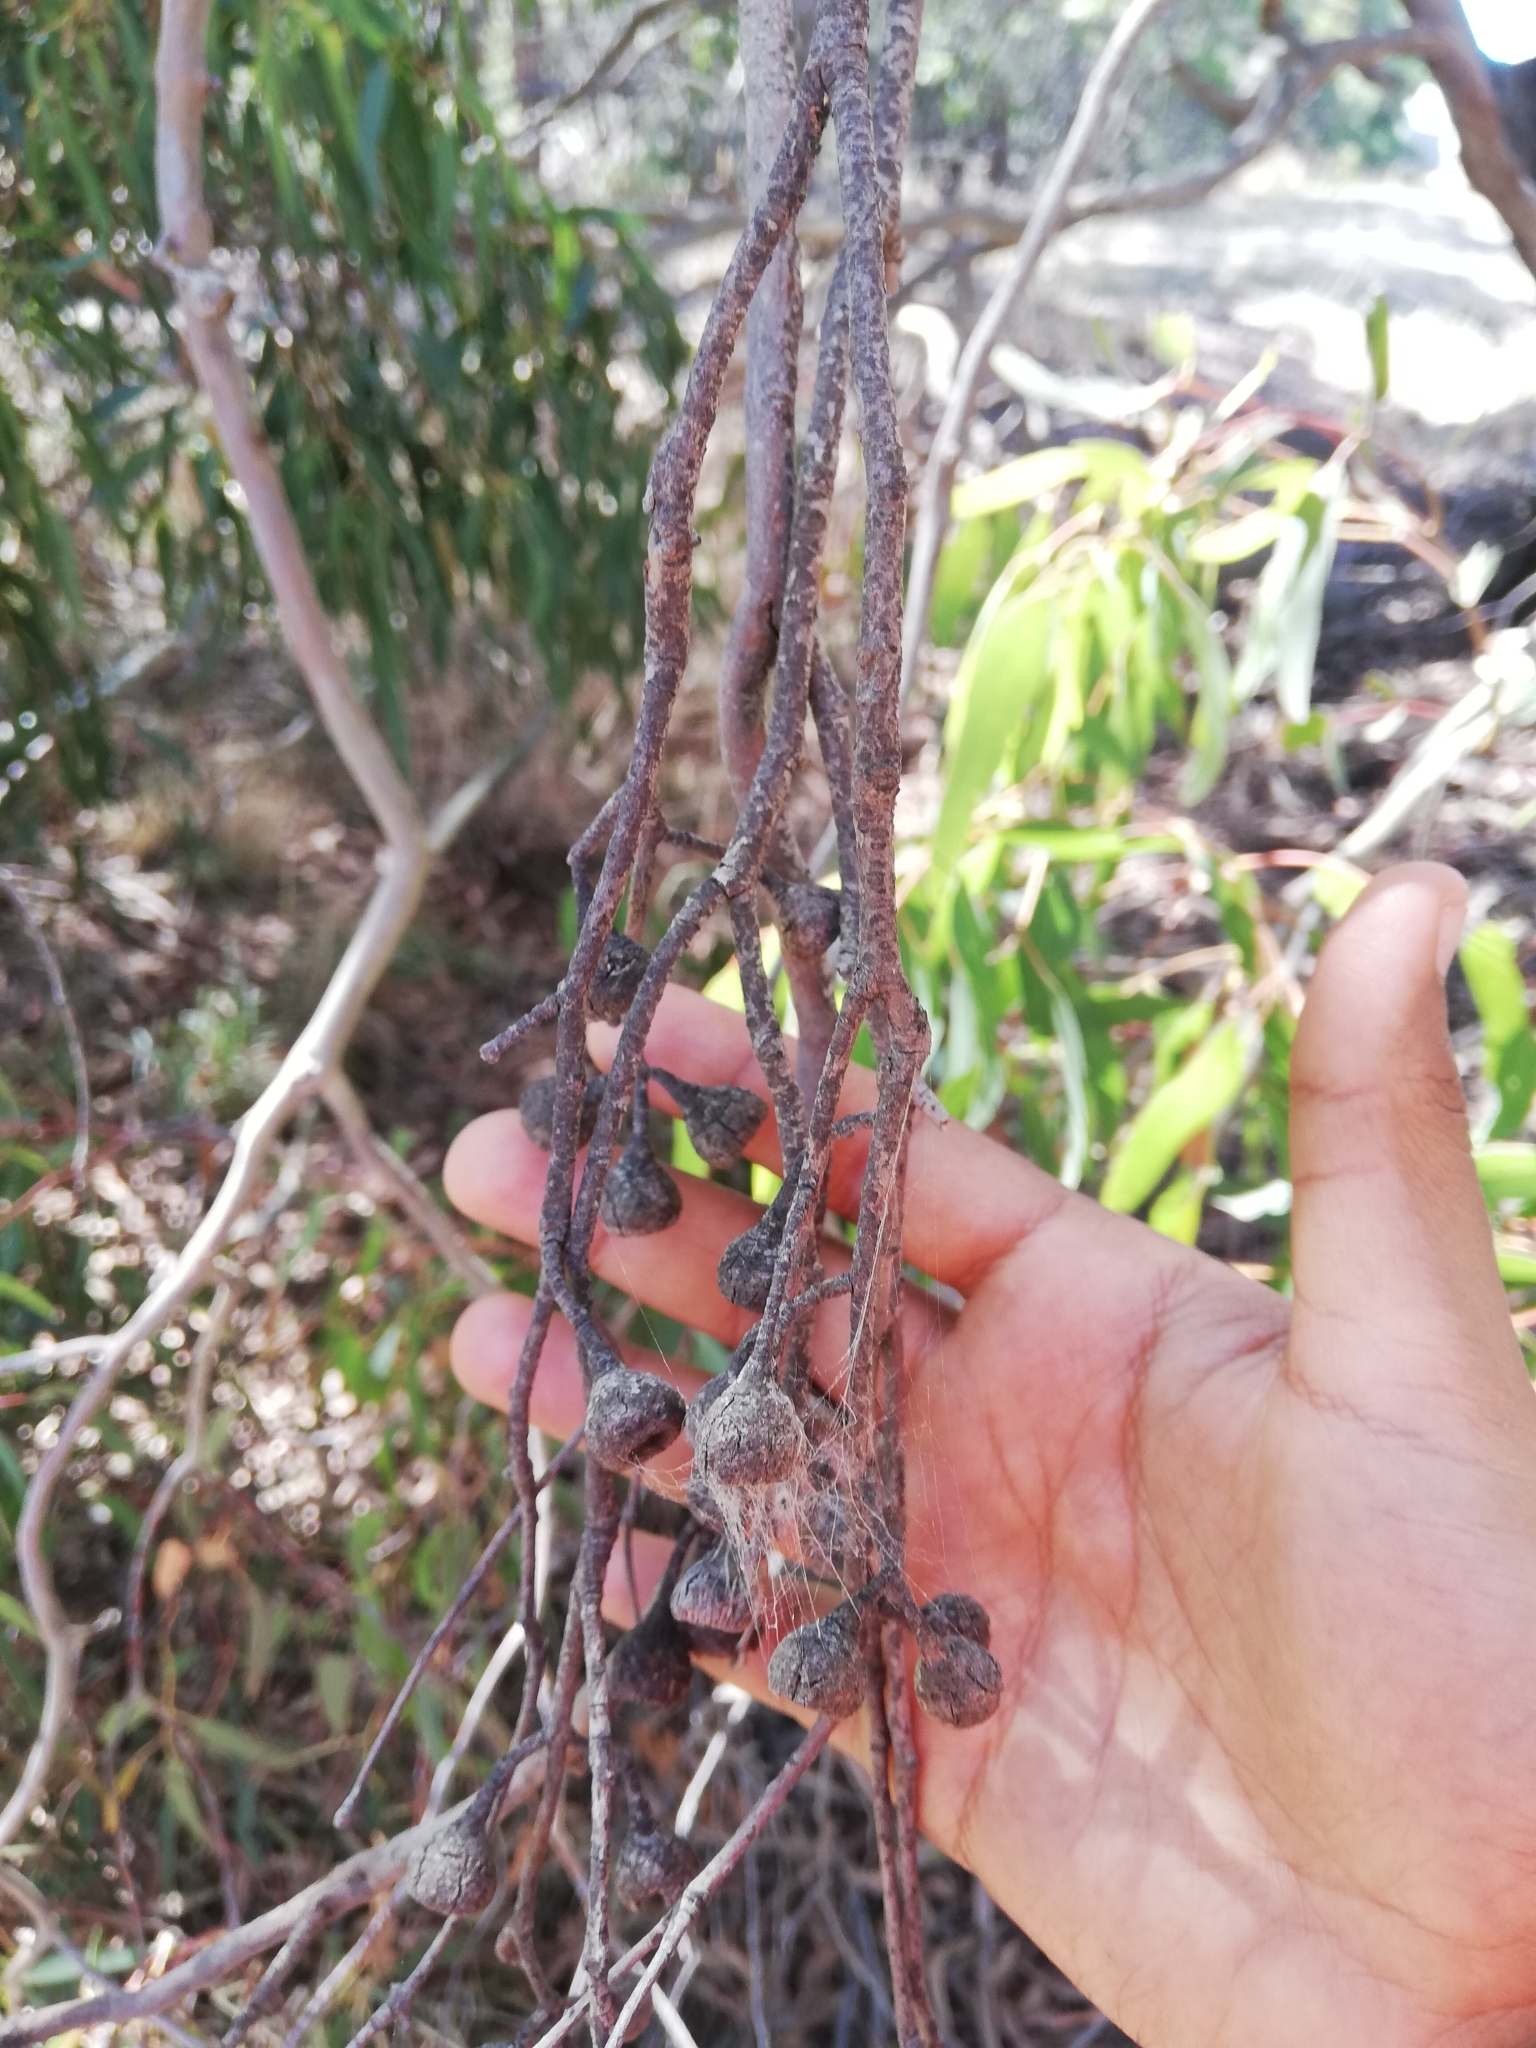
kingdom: Plantae
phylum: Tracheophyta
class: Magnoliopsida
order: Myrtales
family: Myrtaceae
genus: Eucalyptus
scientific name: Eucalyptus leucoxylon
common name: Blue gum
